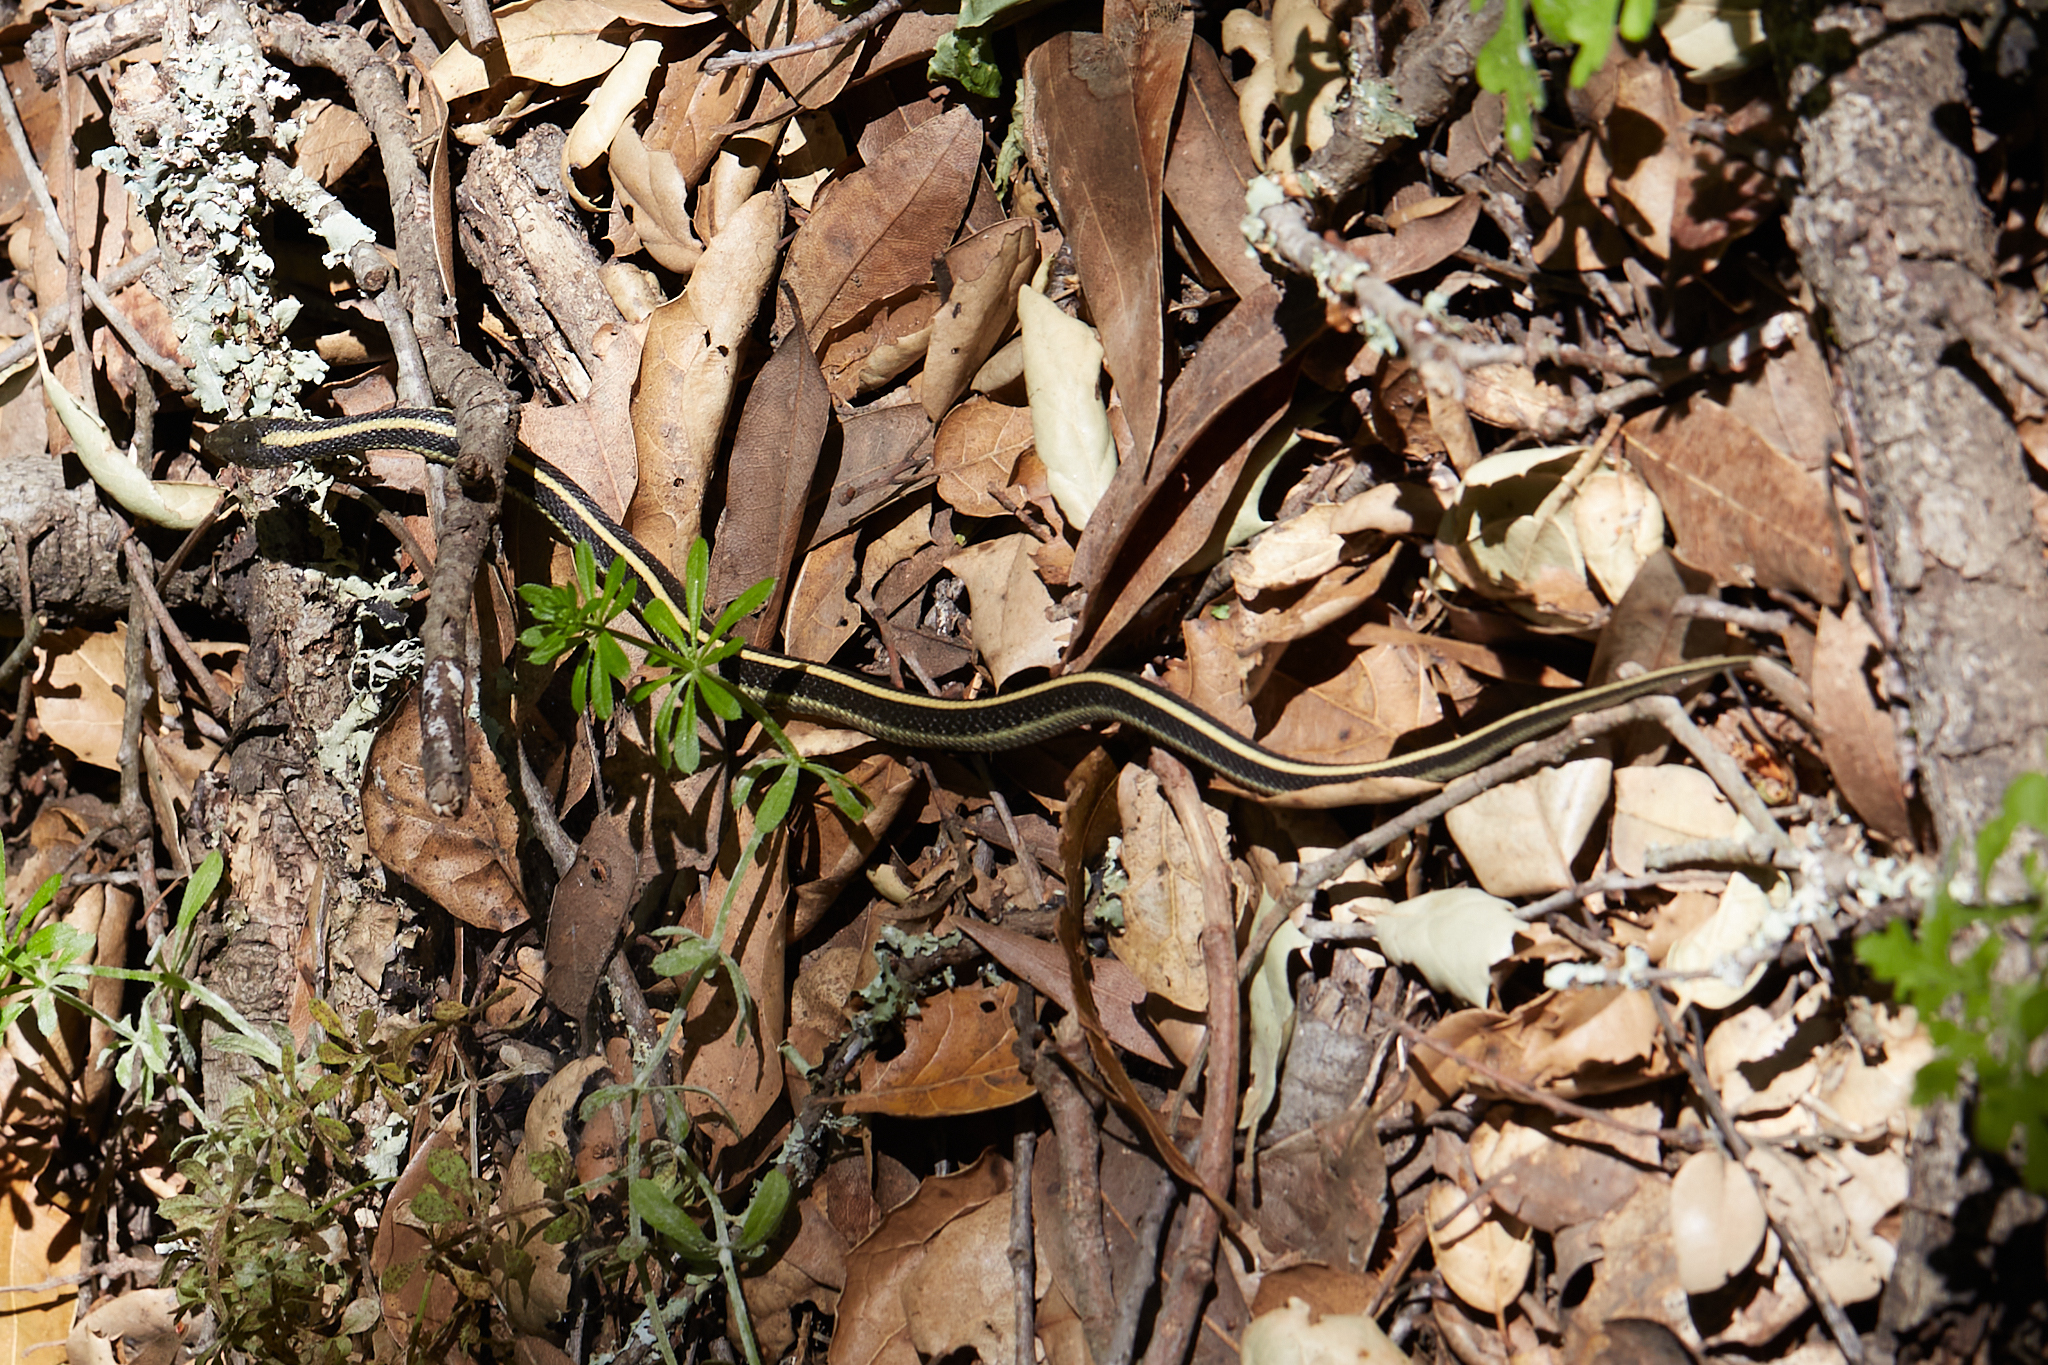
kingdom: Animalia
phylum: Chordata
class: Squamata
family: Colubridae
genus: Thamnophis
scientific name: Thamnophis atratus
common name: Pacific coast aquatic garter snake
